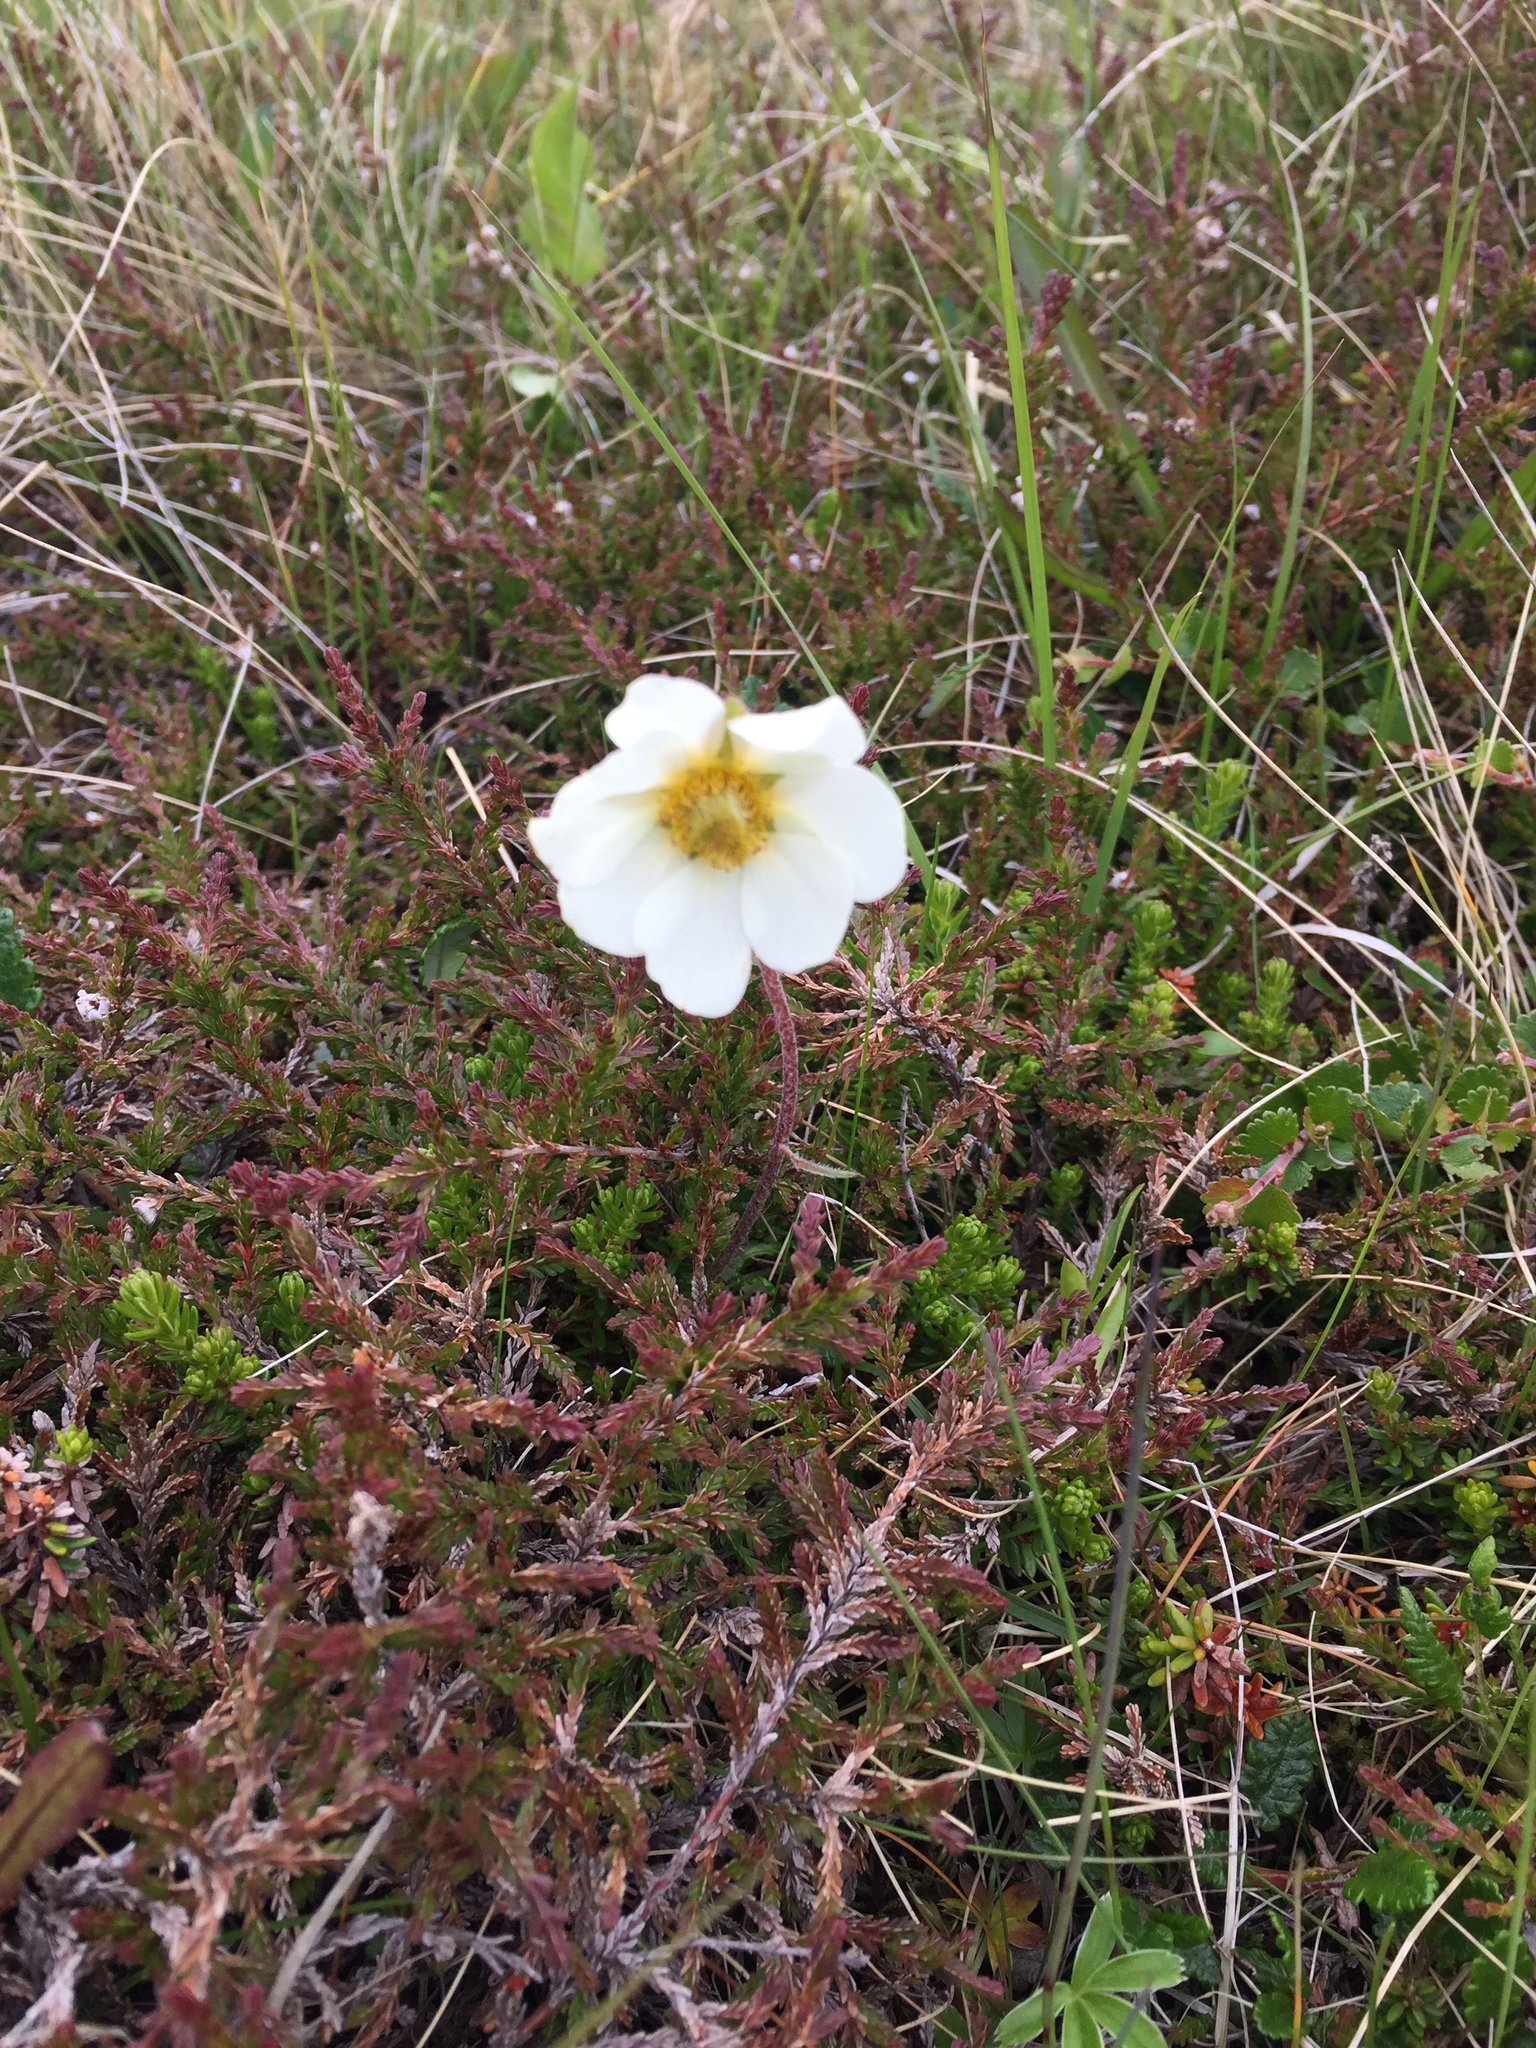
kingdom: Plantae
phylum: Tracheophyta
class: Magnoliopsida
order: Rosales
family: Rosaceae
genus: Dryas
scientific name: Dryas octopetala
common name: Eight-petal mountain-avens
